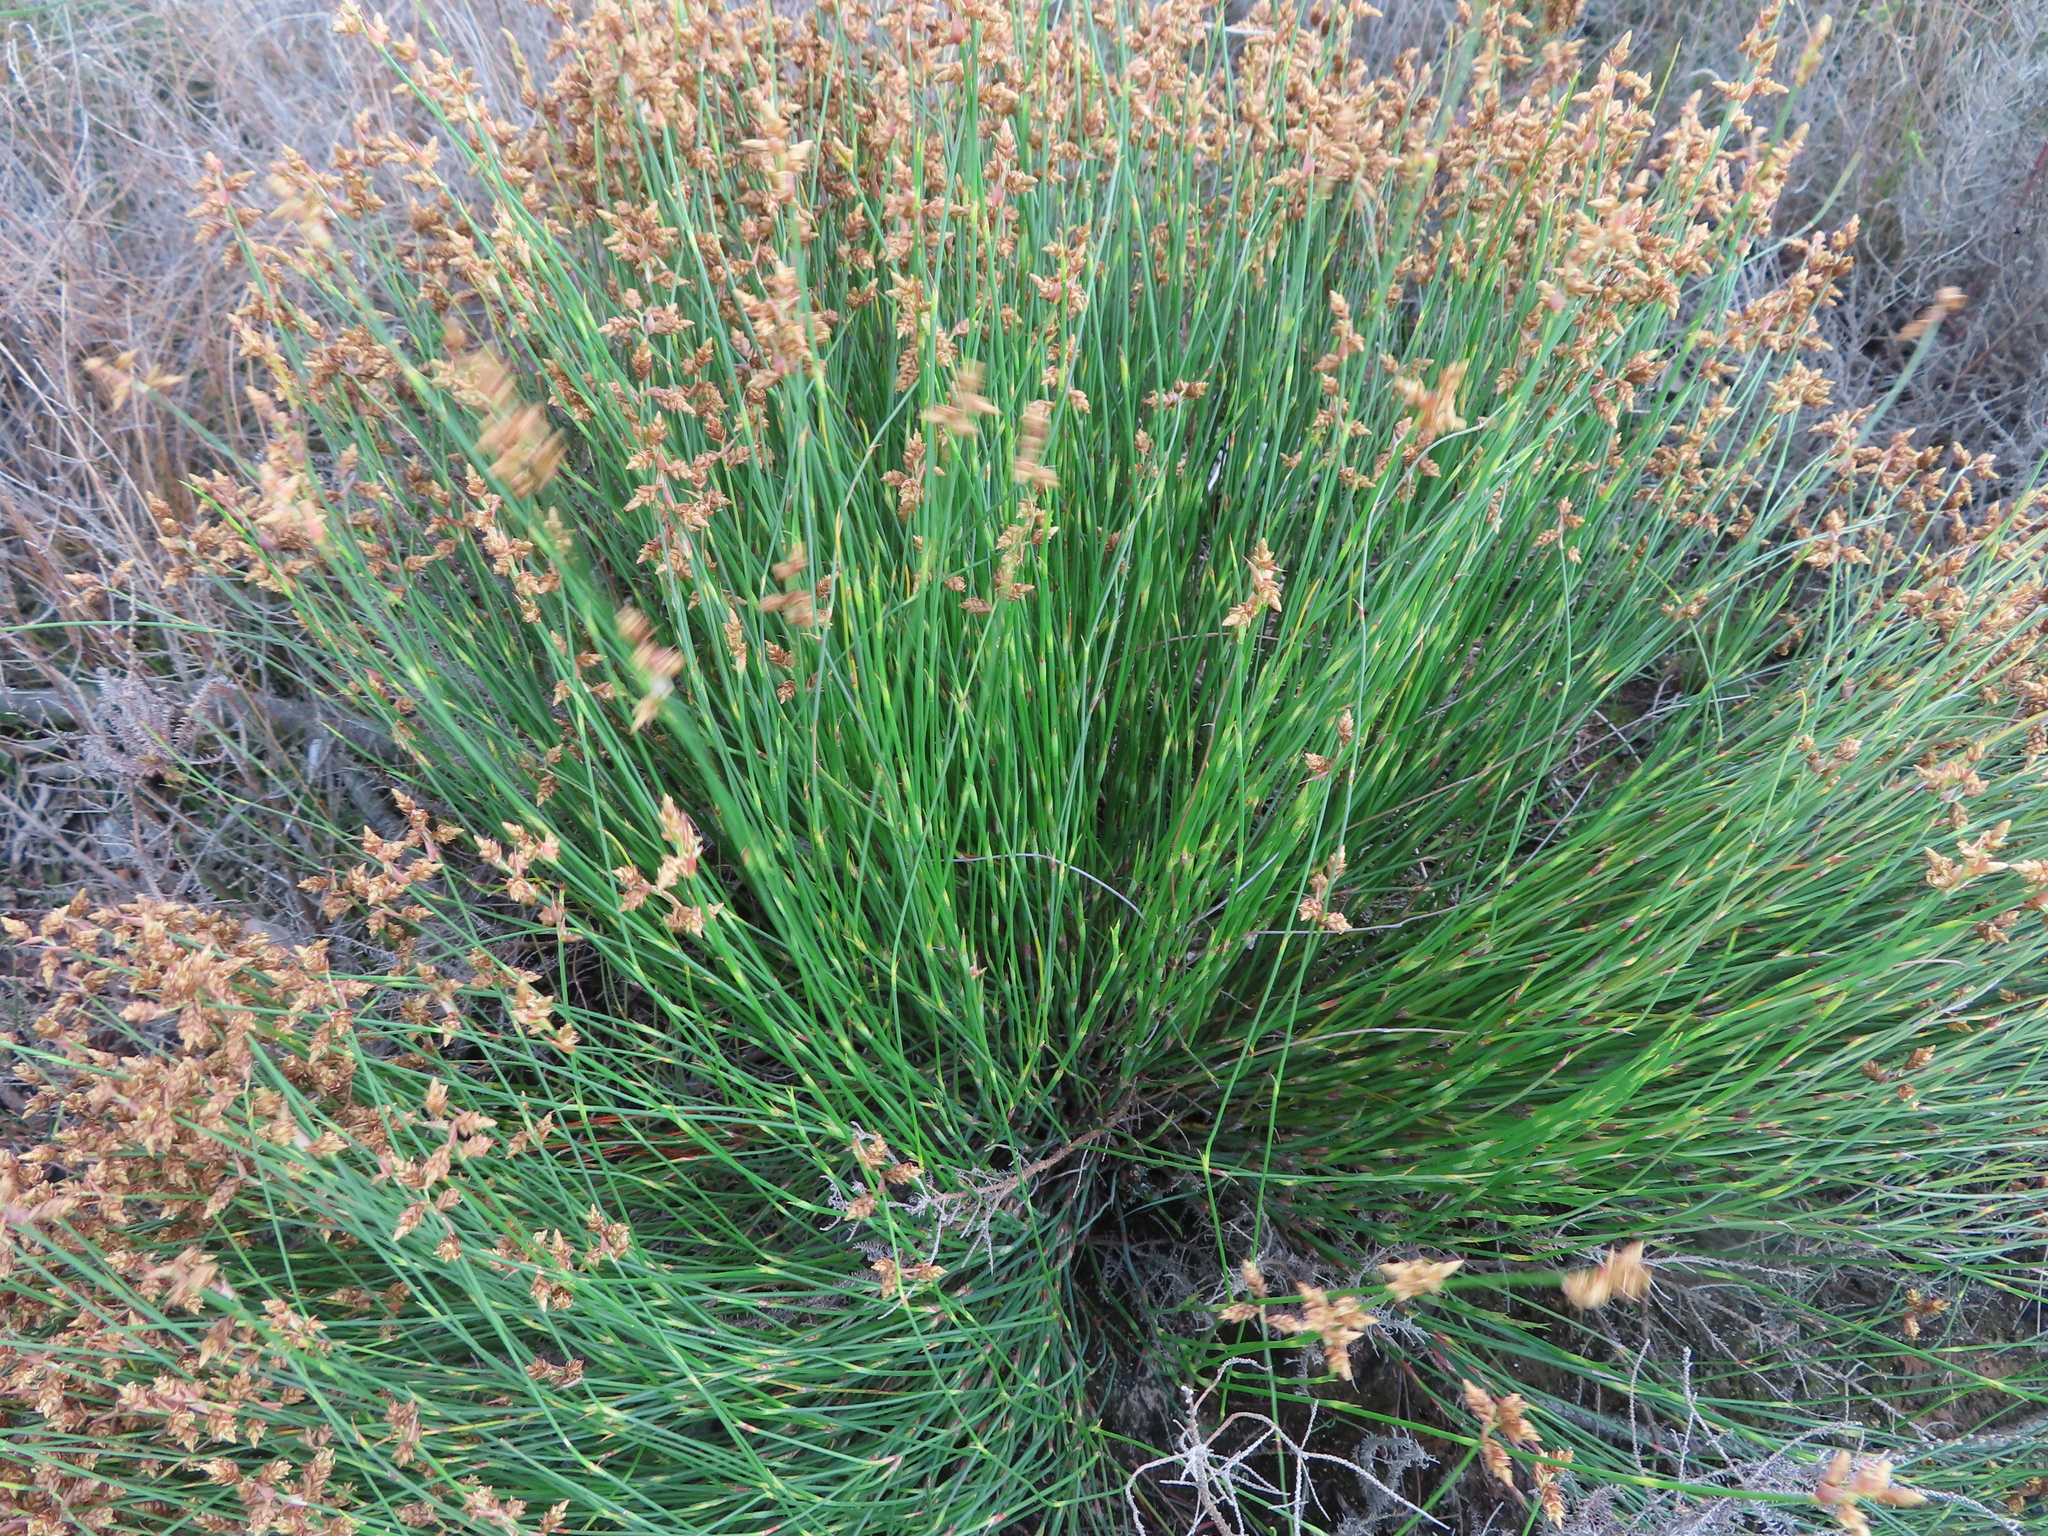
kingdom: Plantae
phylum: Tracheophyta
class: Liliopsida
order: Poales
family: Restionaceae
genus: Mastersiella
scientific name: Mastersiella digitata
